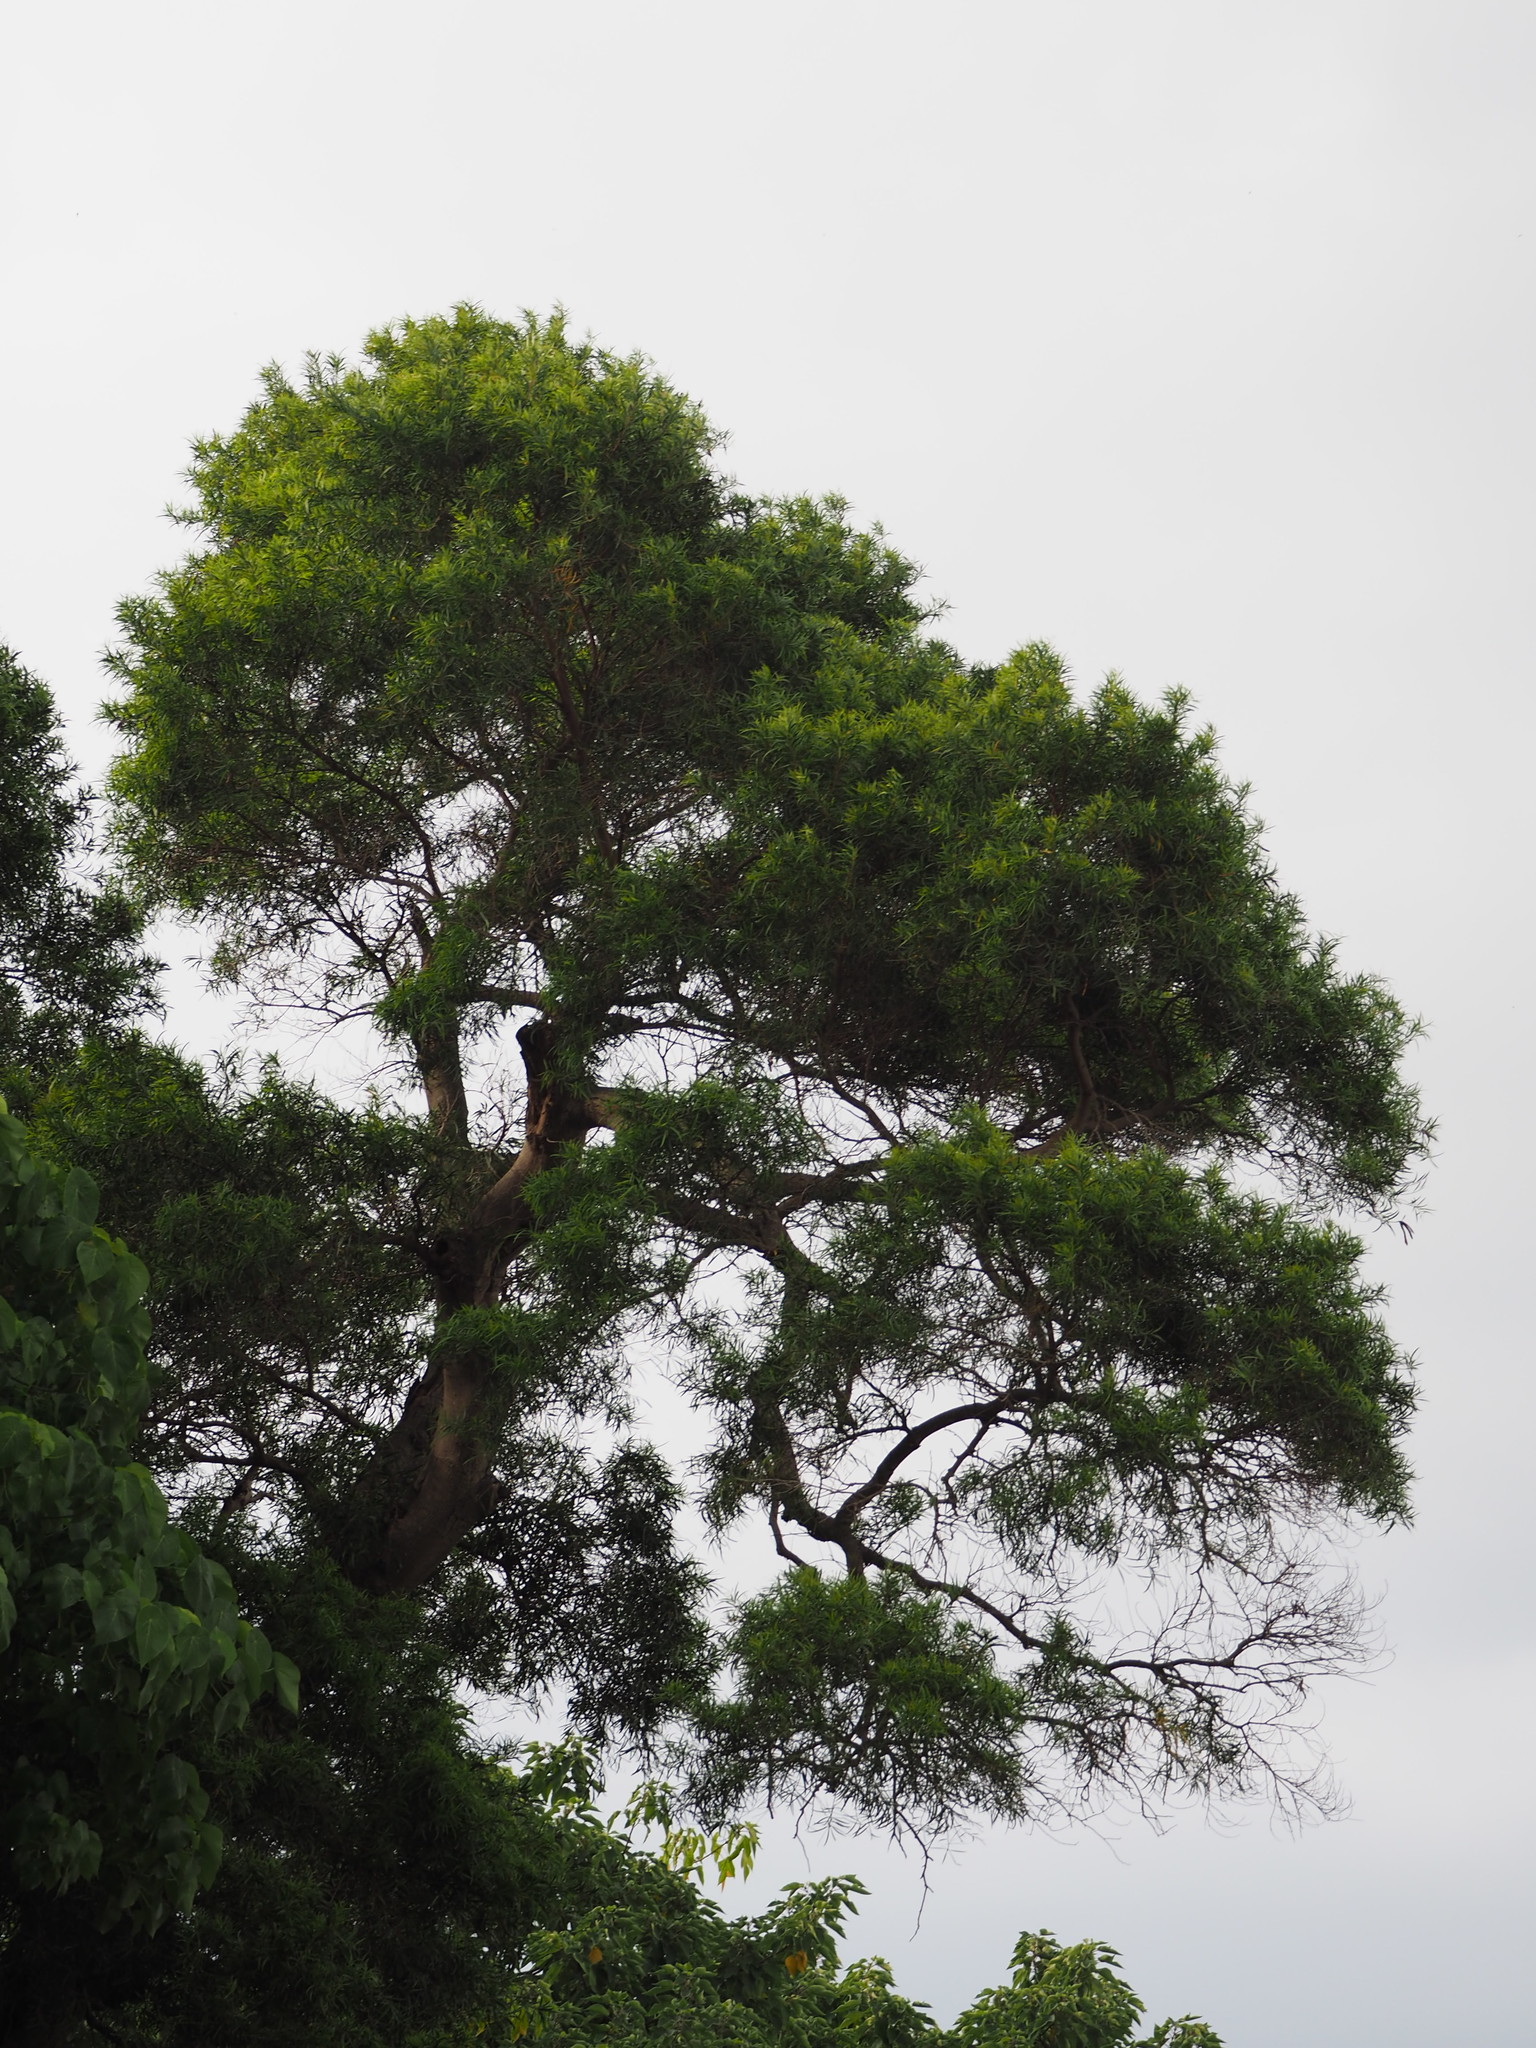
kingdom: Plantae
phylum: Tracheophyta
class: Magnoliopsida
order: Fabales
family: Fabaceae
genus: Acacia
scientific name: Acacia confusa
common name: Formosan koa
